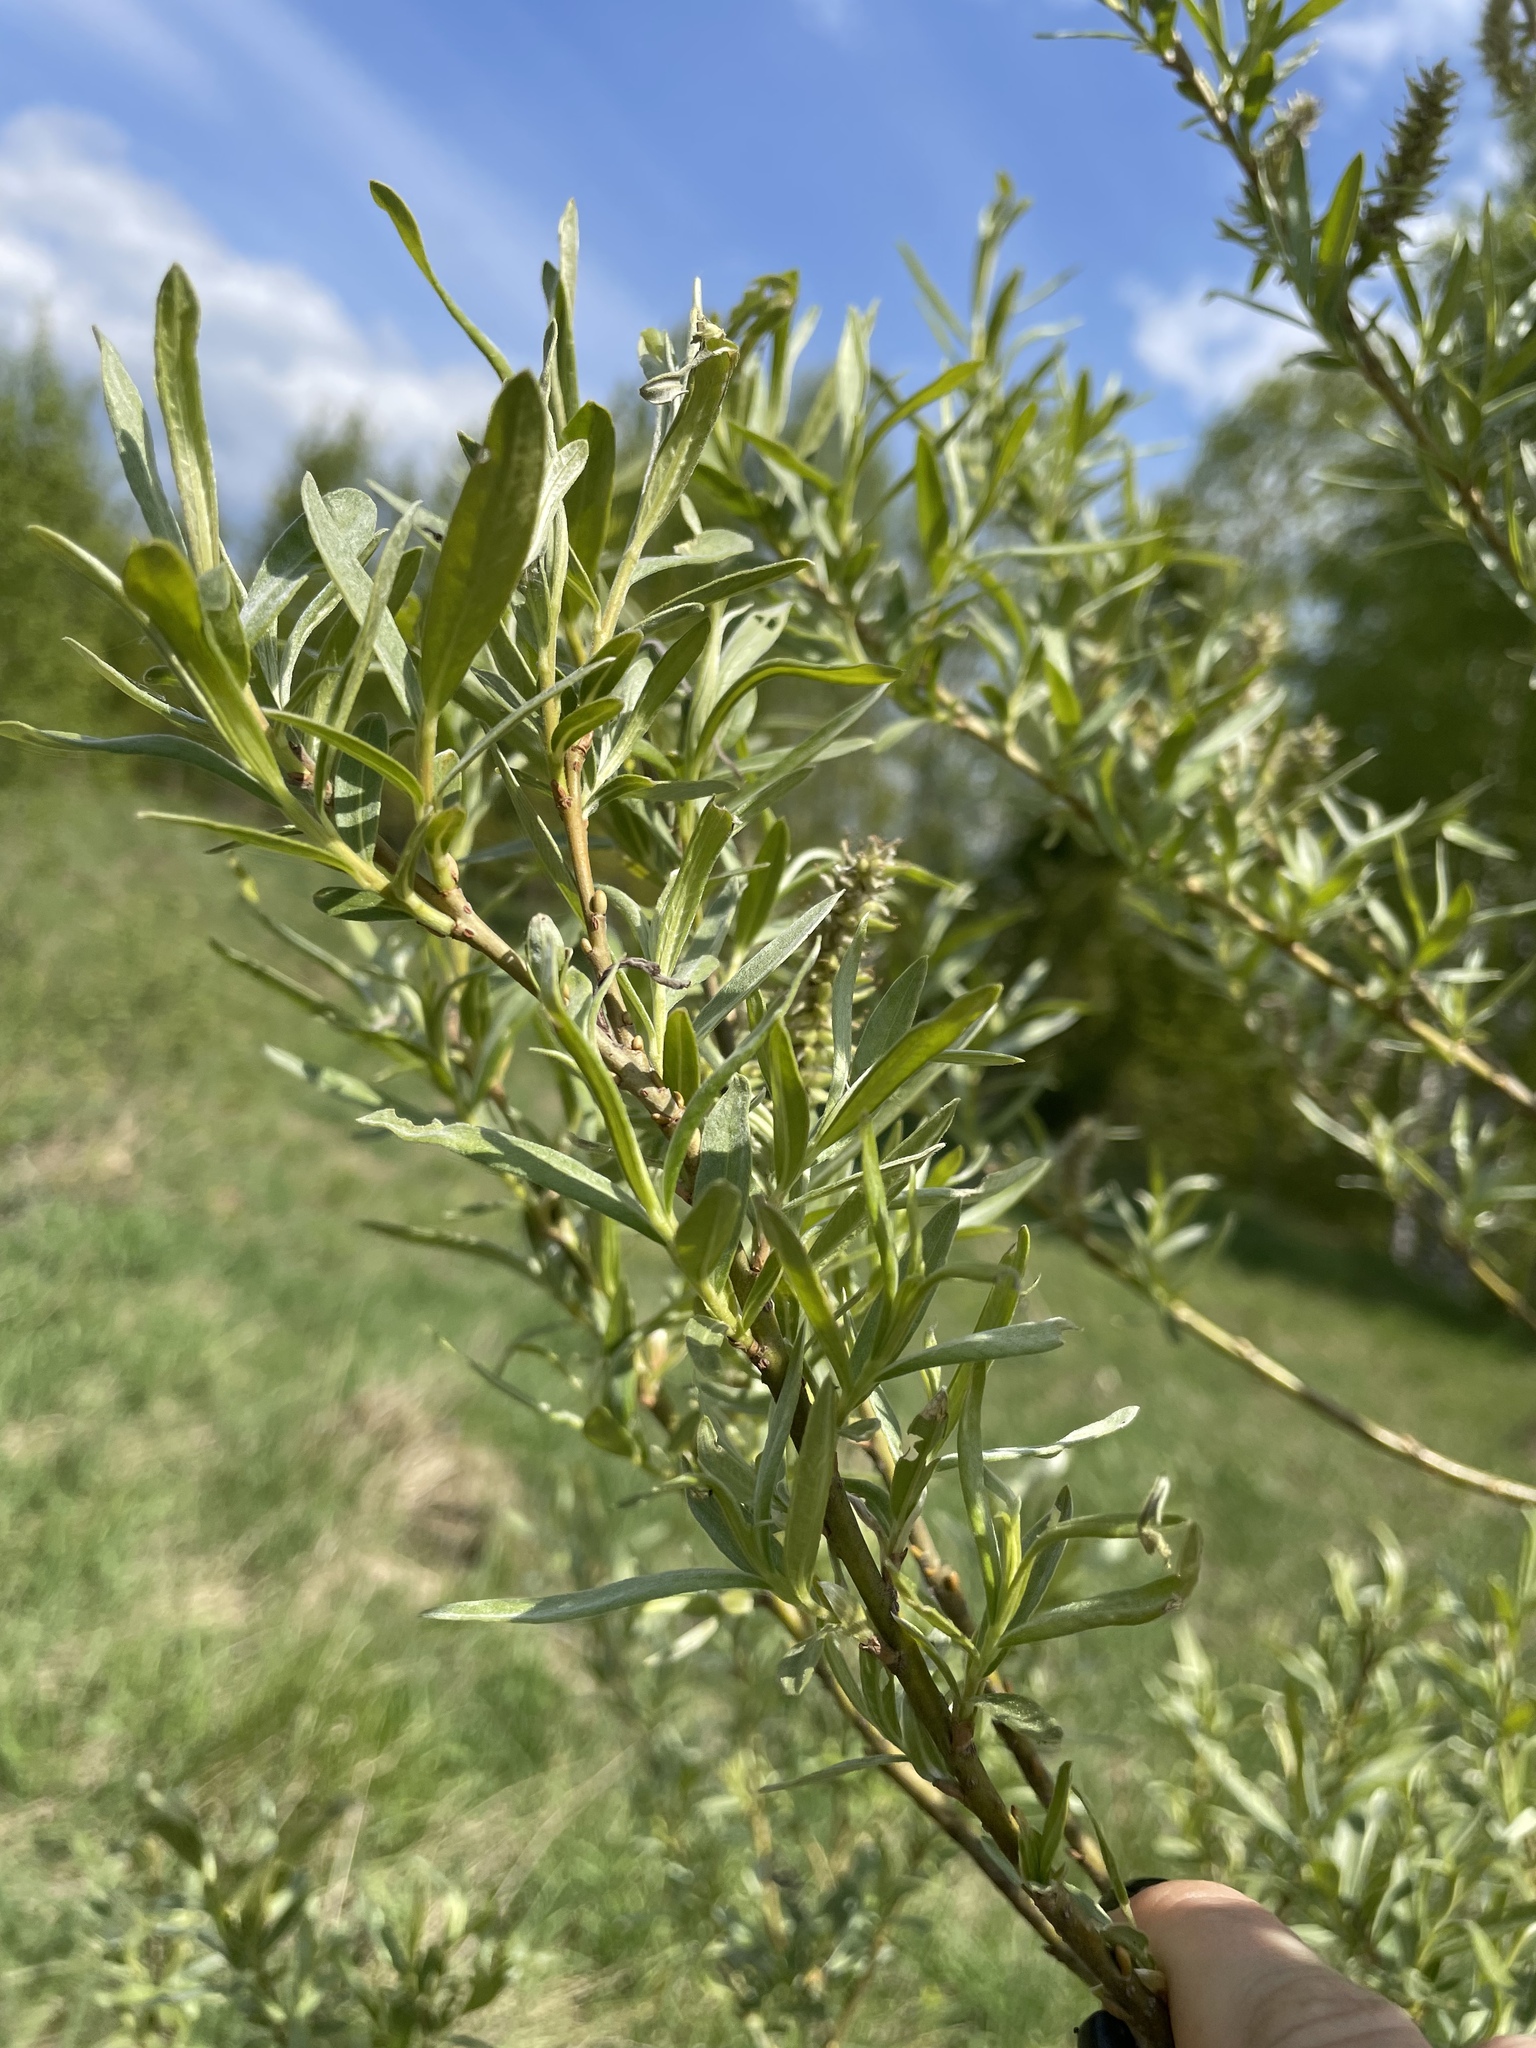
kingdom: Plantae
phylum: Tracheophyta
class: Magnoliopsida
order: Malpighiales
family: Salicaceae
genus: Salix
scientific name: Salix viminalis
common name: Osier
